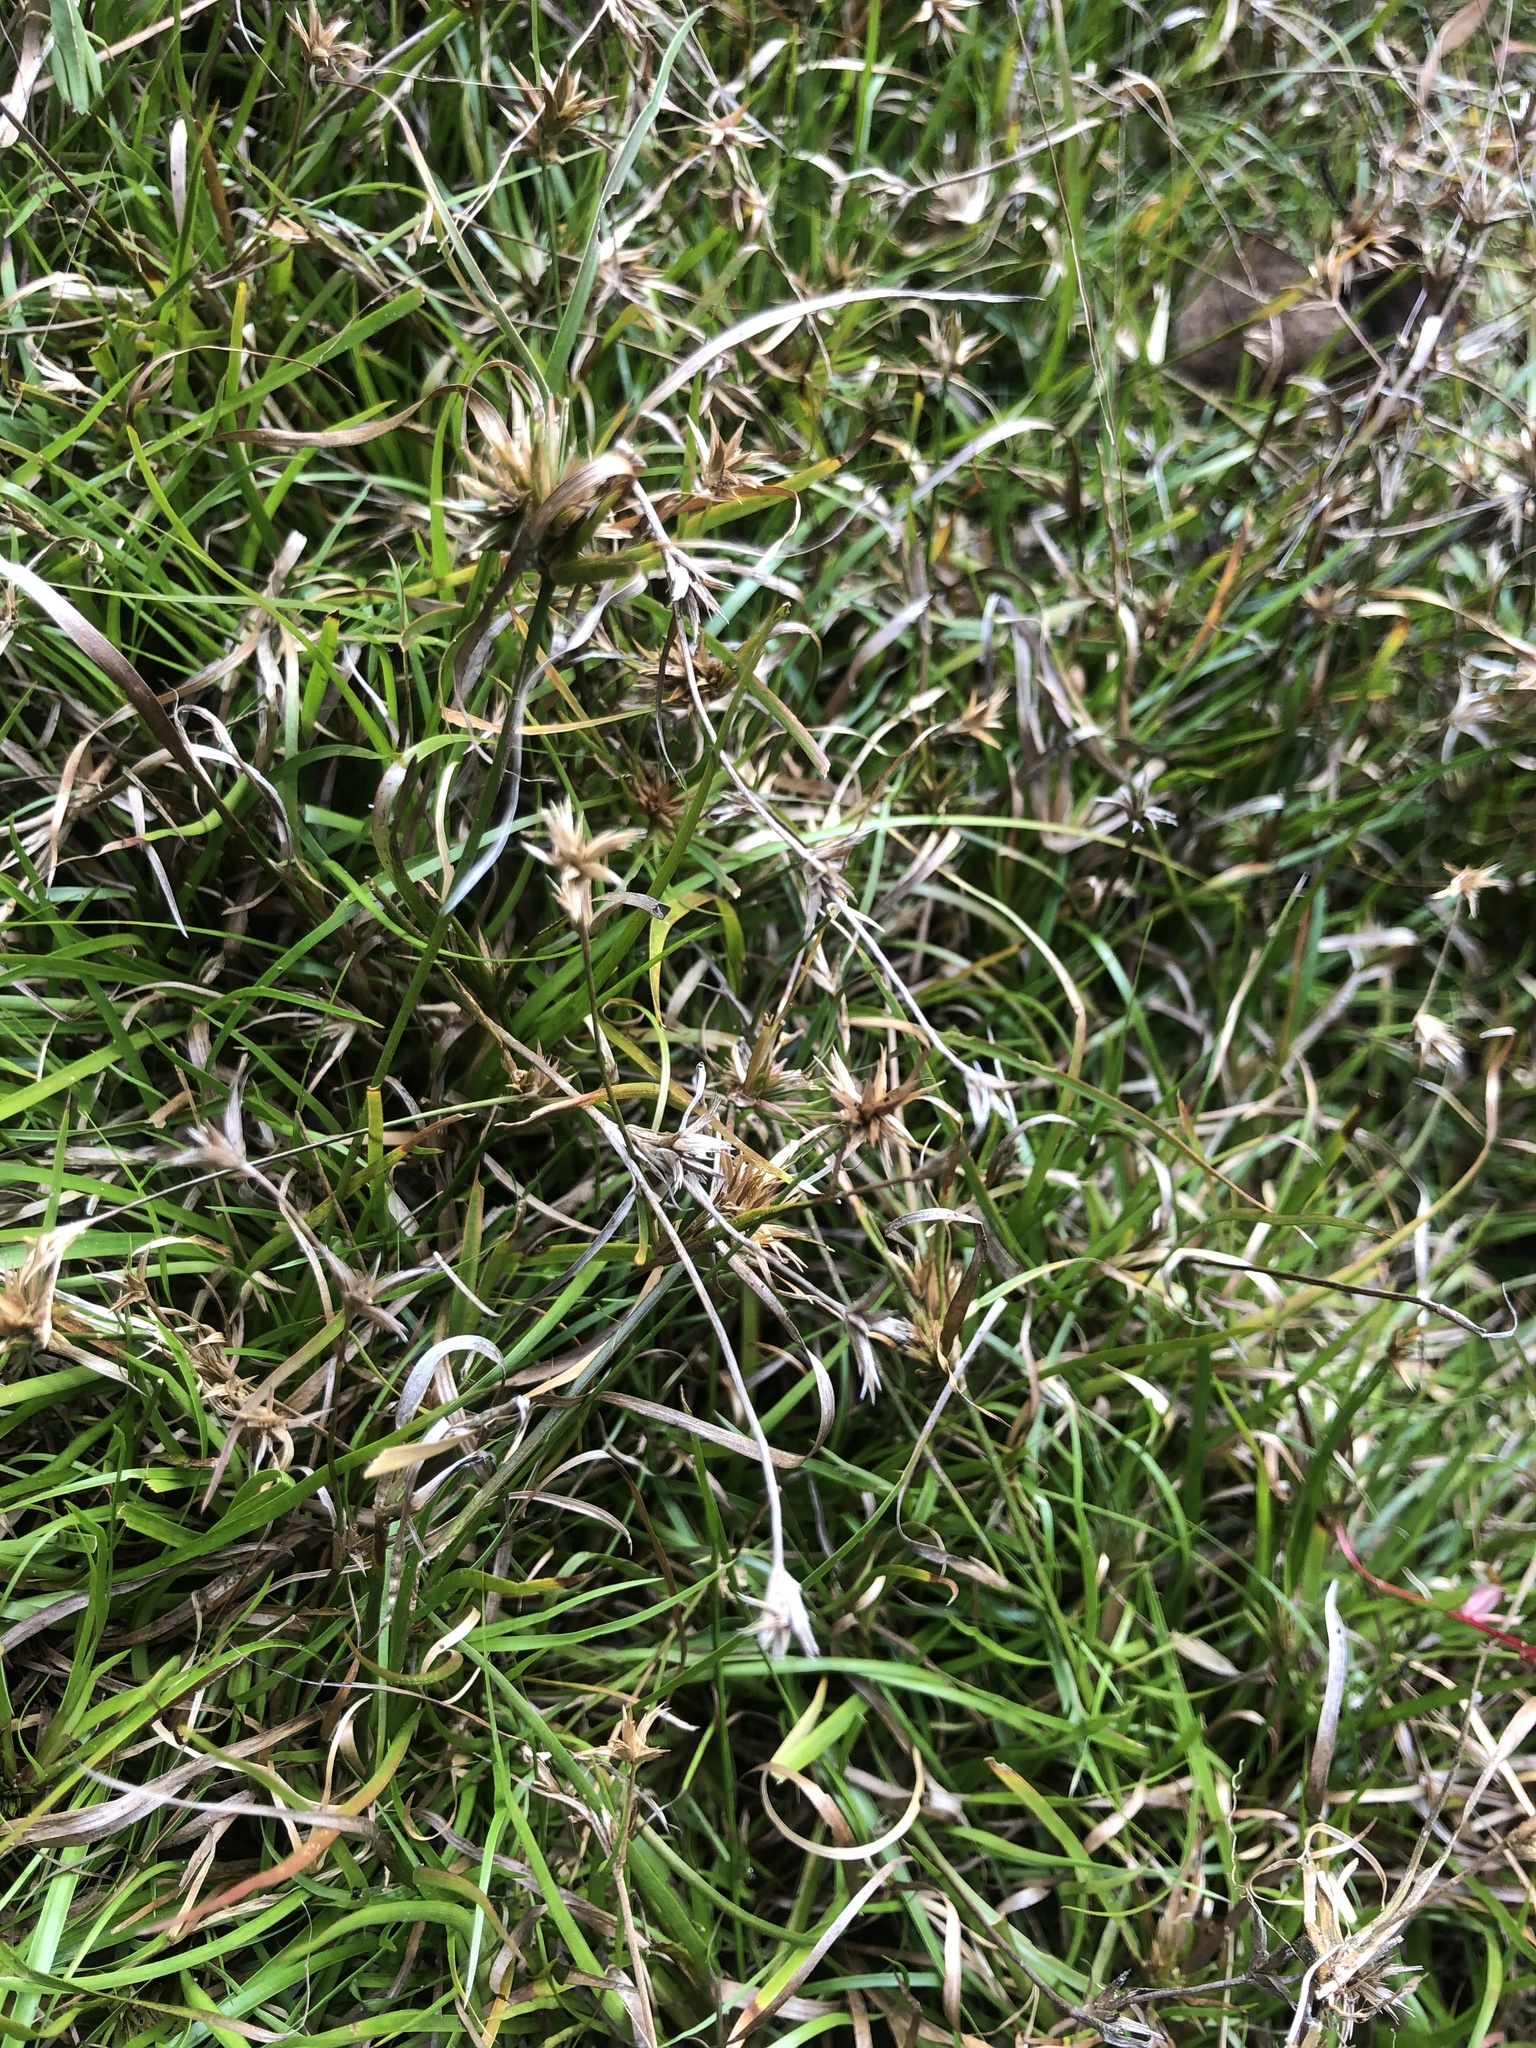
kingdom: Plantae
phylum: Tracheophyta
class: Liliopsida
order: Poales
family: Juncaceae
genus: Juncus
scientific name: Juncus repens
